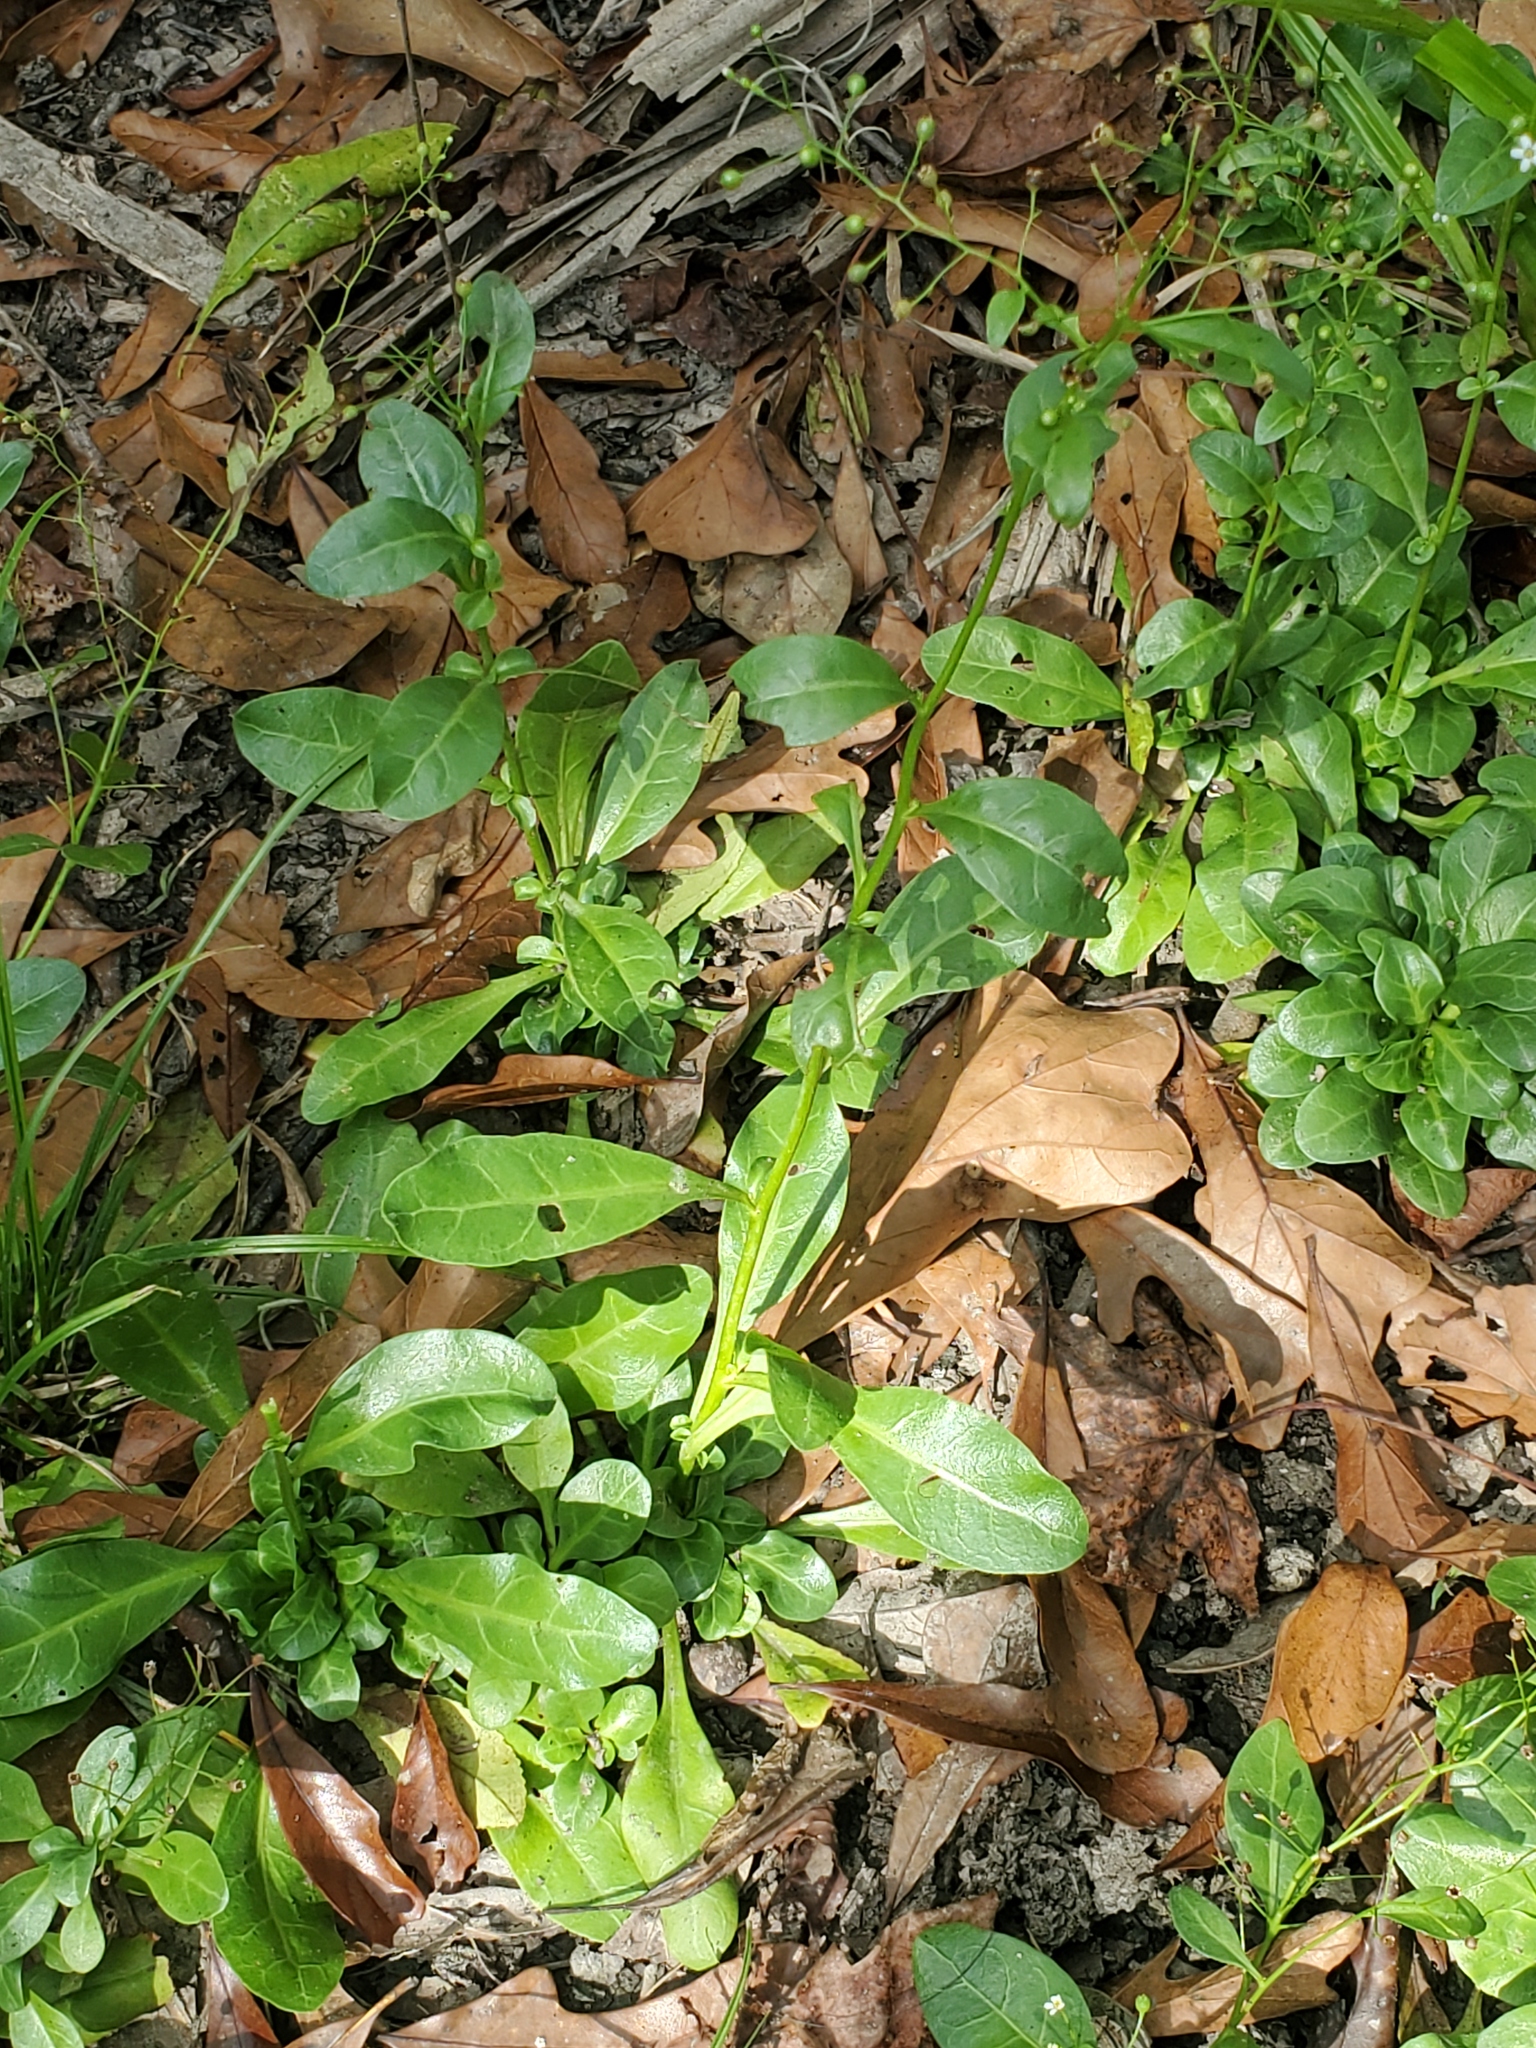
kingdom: Plantae
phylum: Tracheophyta
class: Magnoliopsida
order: Ericales
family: Primulaceae
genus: Samolus
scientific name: Samolus parviflorus
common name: False water pimpernel
